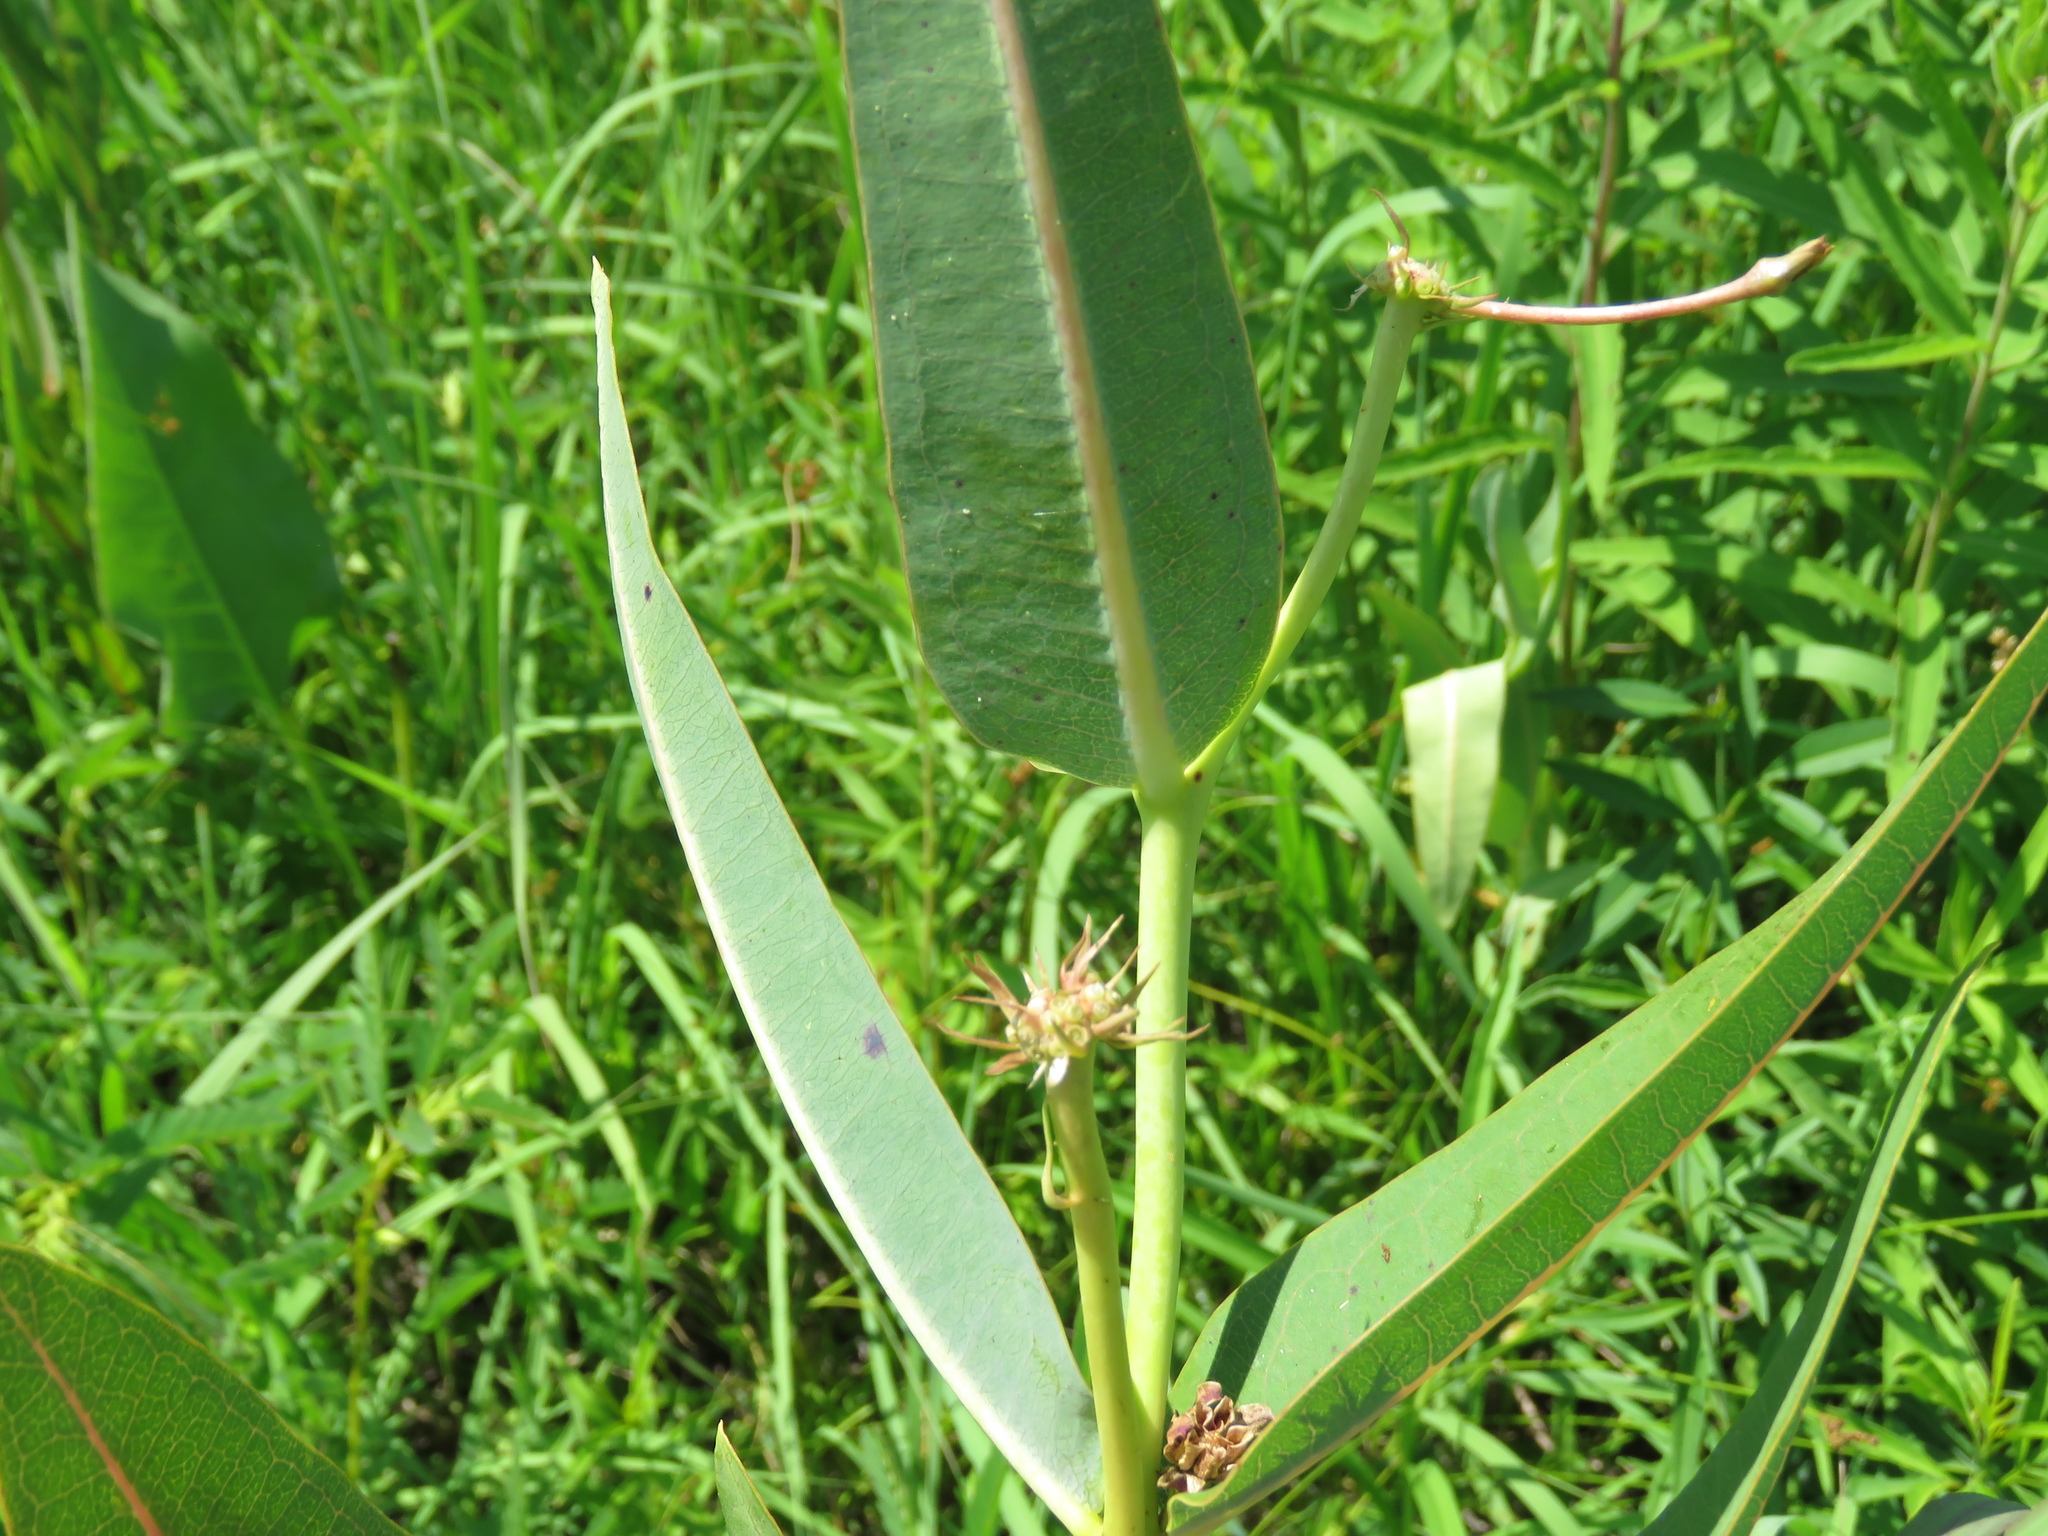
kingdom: Plantae
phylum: Tracheophyta
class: Magnoliopsida
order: Gentianales
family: Apocynaceae
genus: Asclepias
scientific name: Asclepias sullivantii
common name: Prairie milkweed
